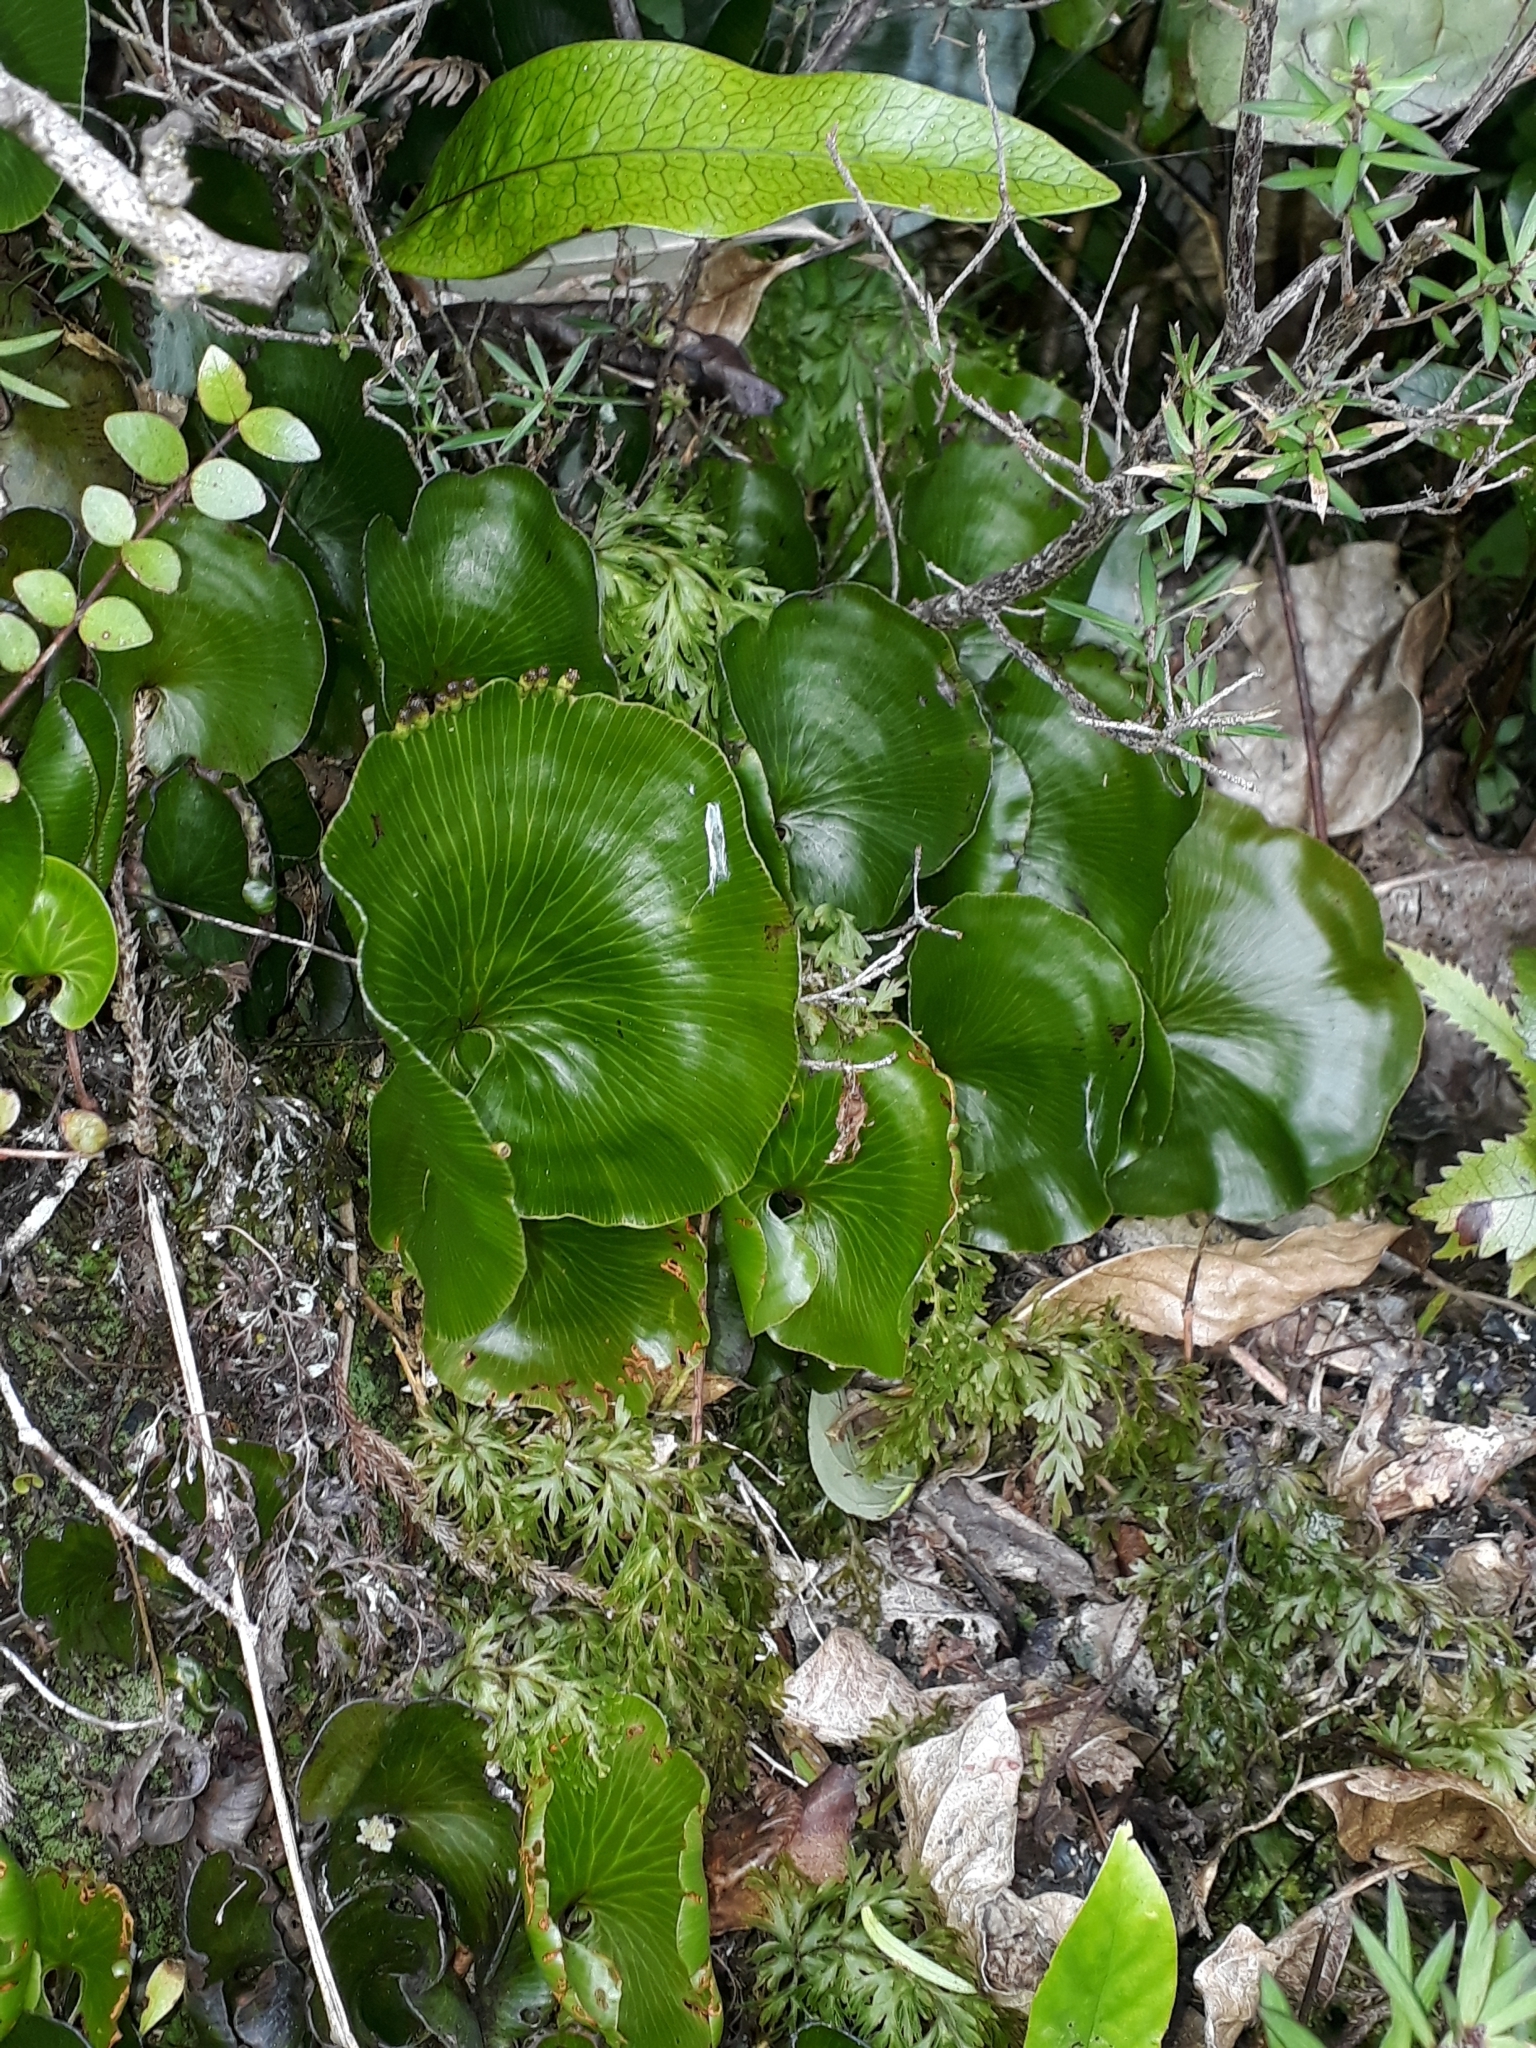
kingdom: Plantae
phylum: Tracheophyta
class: Polypodiopsida
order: Hymenophyllales
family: Hymenophyllaceae
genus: Hymenophyllum
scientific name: Hymenophyllum nephrophyllum
